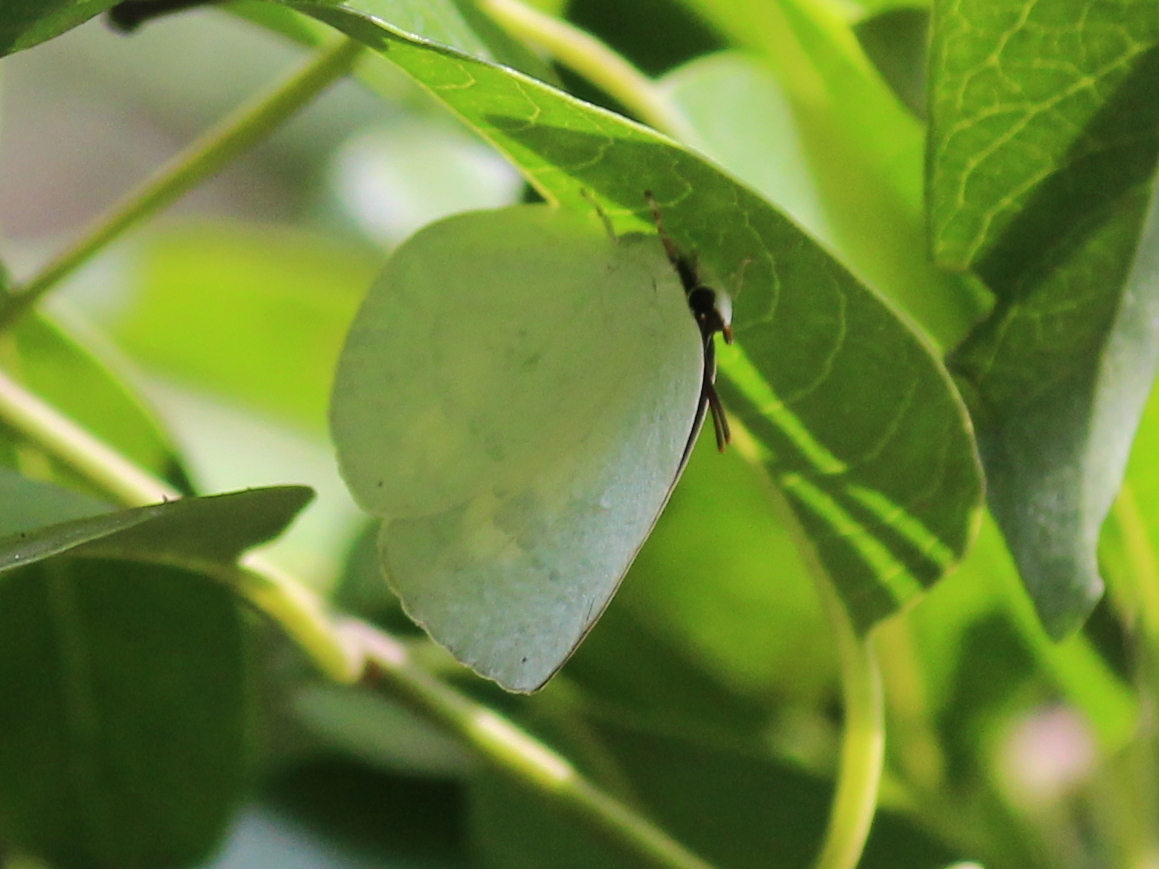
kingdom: Animalia
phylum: Arthropoda
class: Insecta
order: Lepidoptera
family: Lycaenidae
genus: Curetis
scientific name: Curetis thetis
